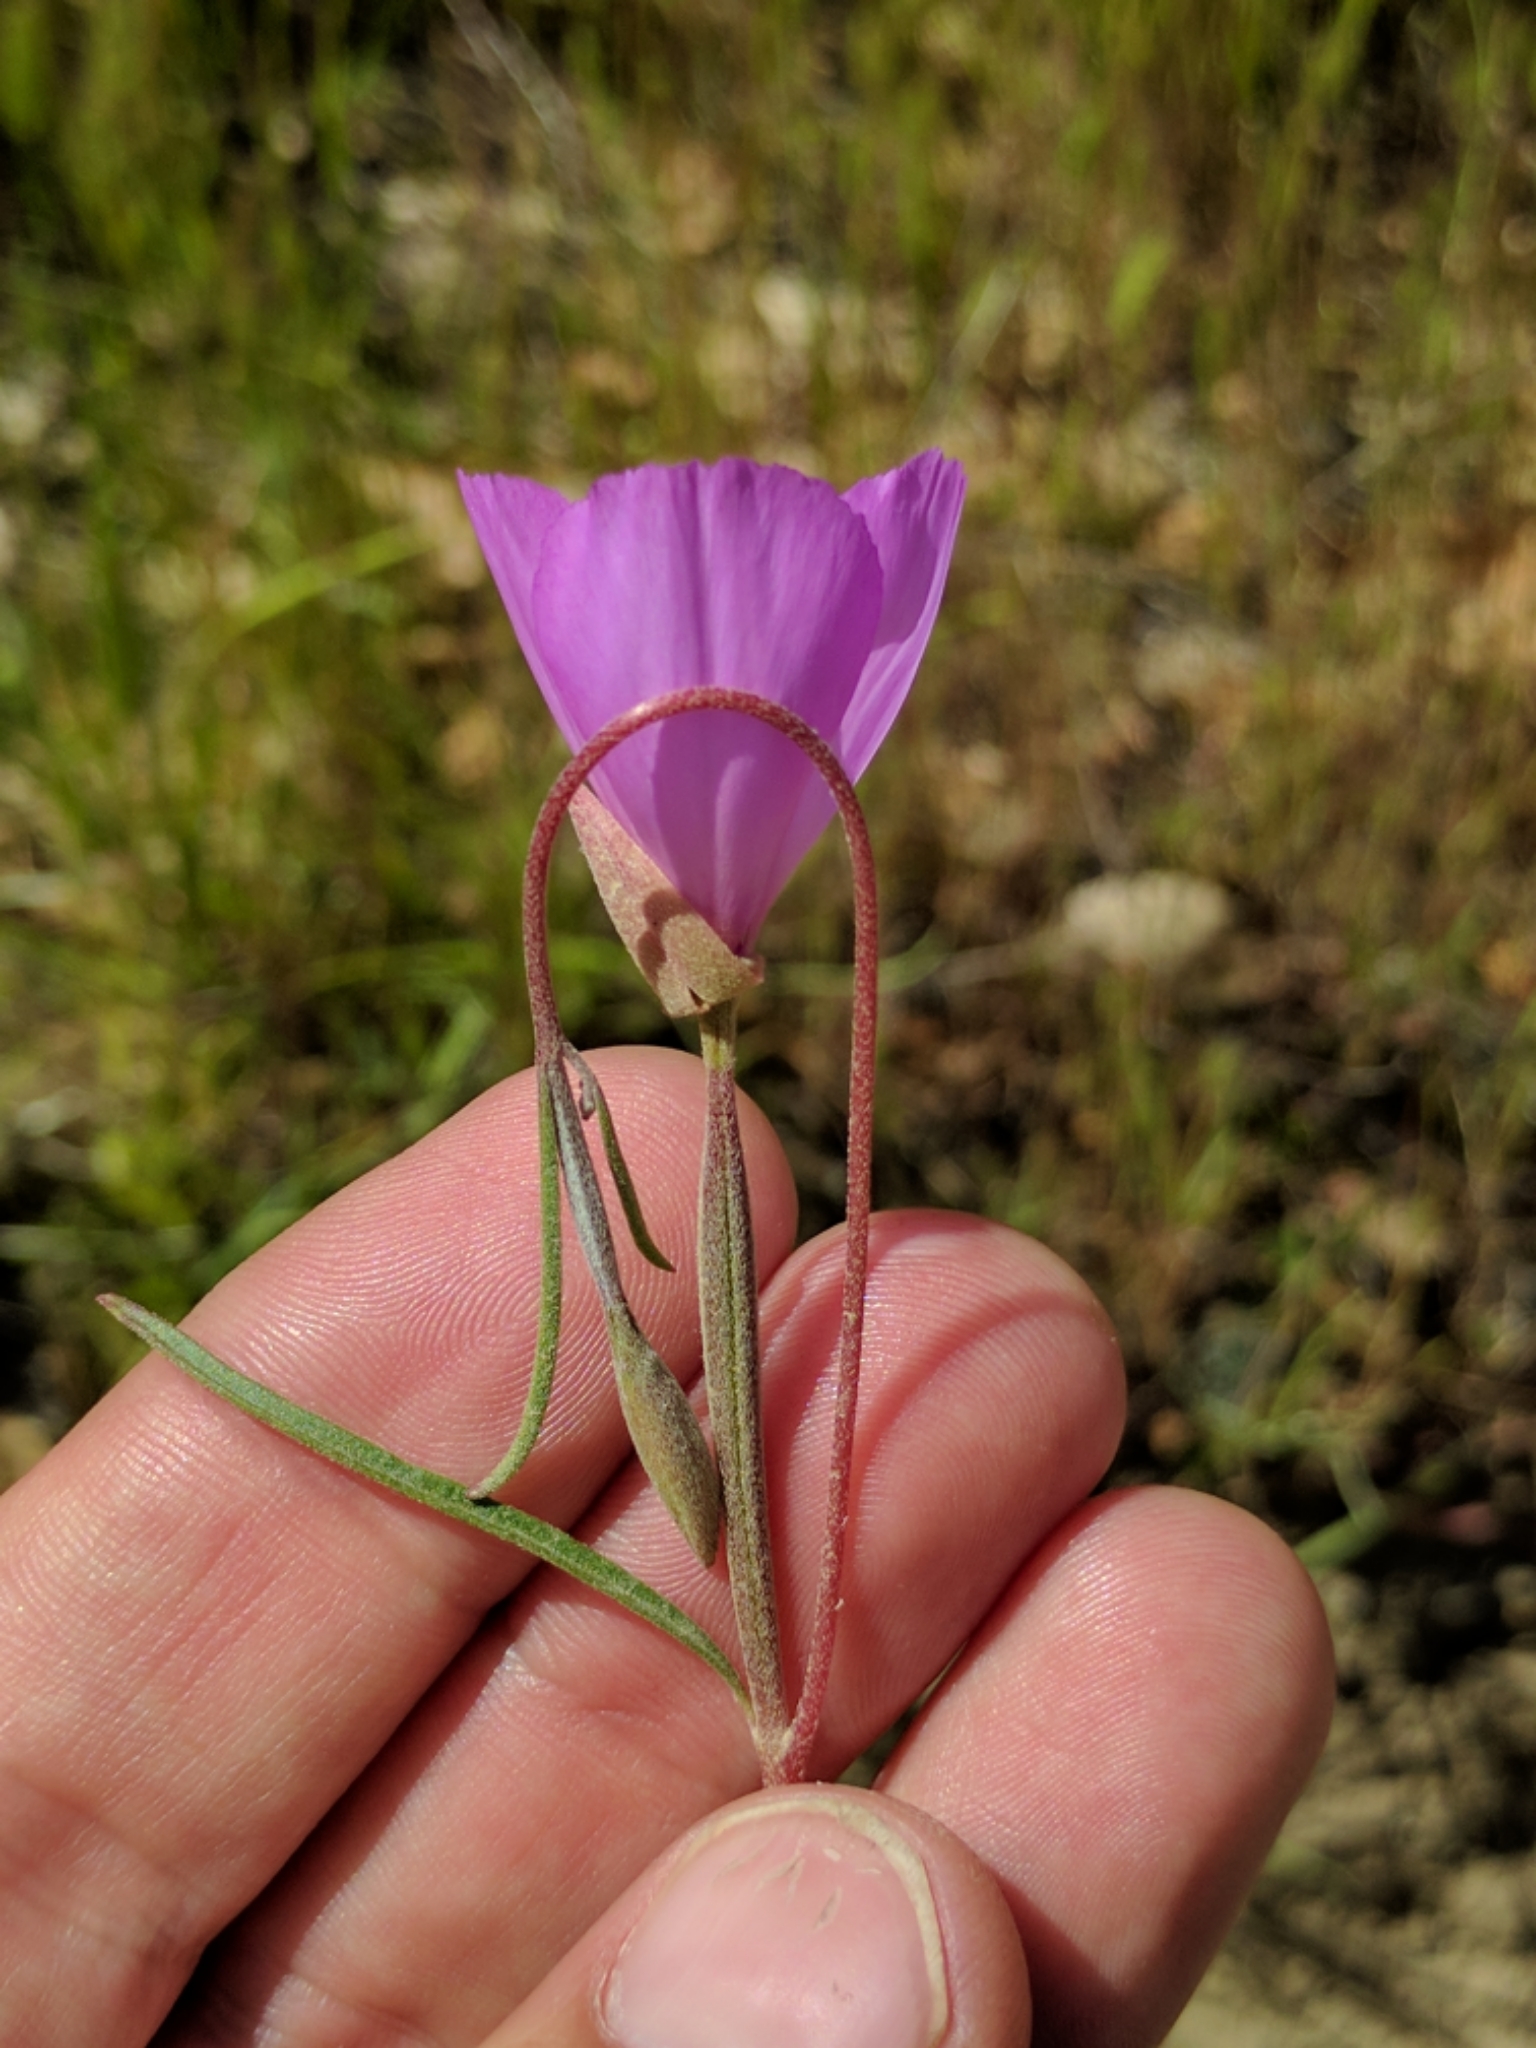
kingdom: Plantae
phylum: Tracheophyta
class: Magnoliopsida
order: Myrtales
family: Onagraceae
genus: Clarkia
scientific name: Clarkia gracilis
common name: Graceful clarkia
